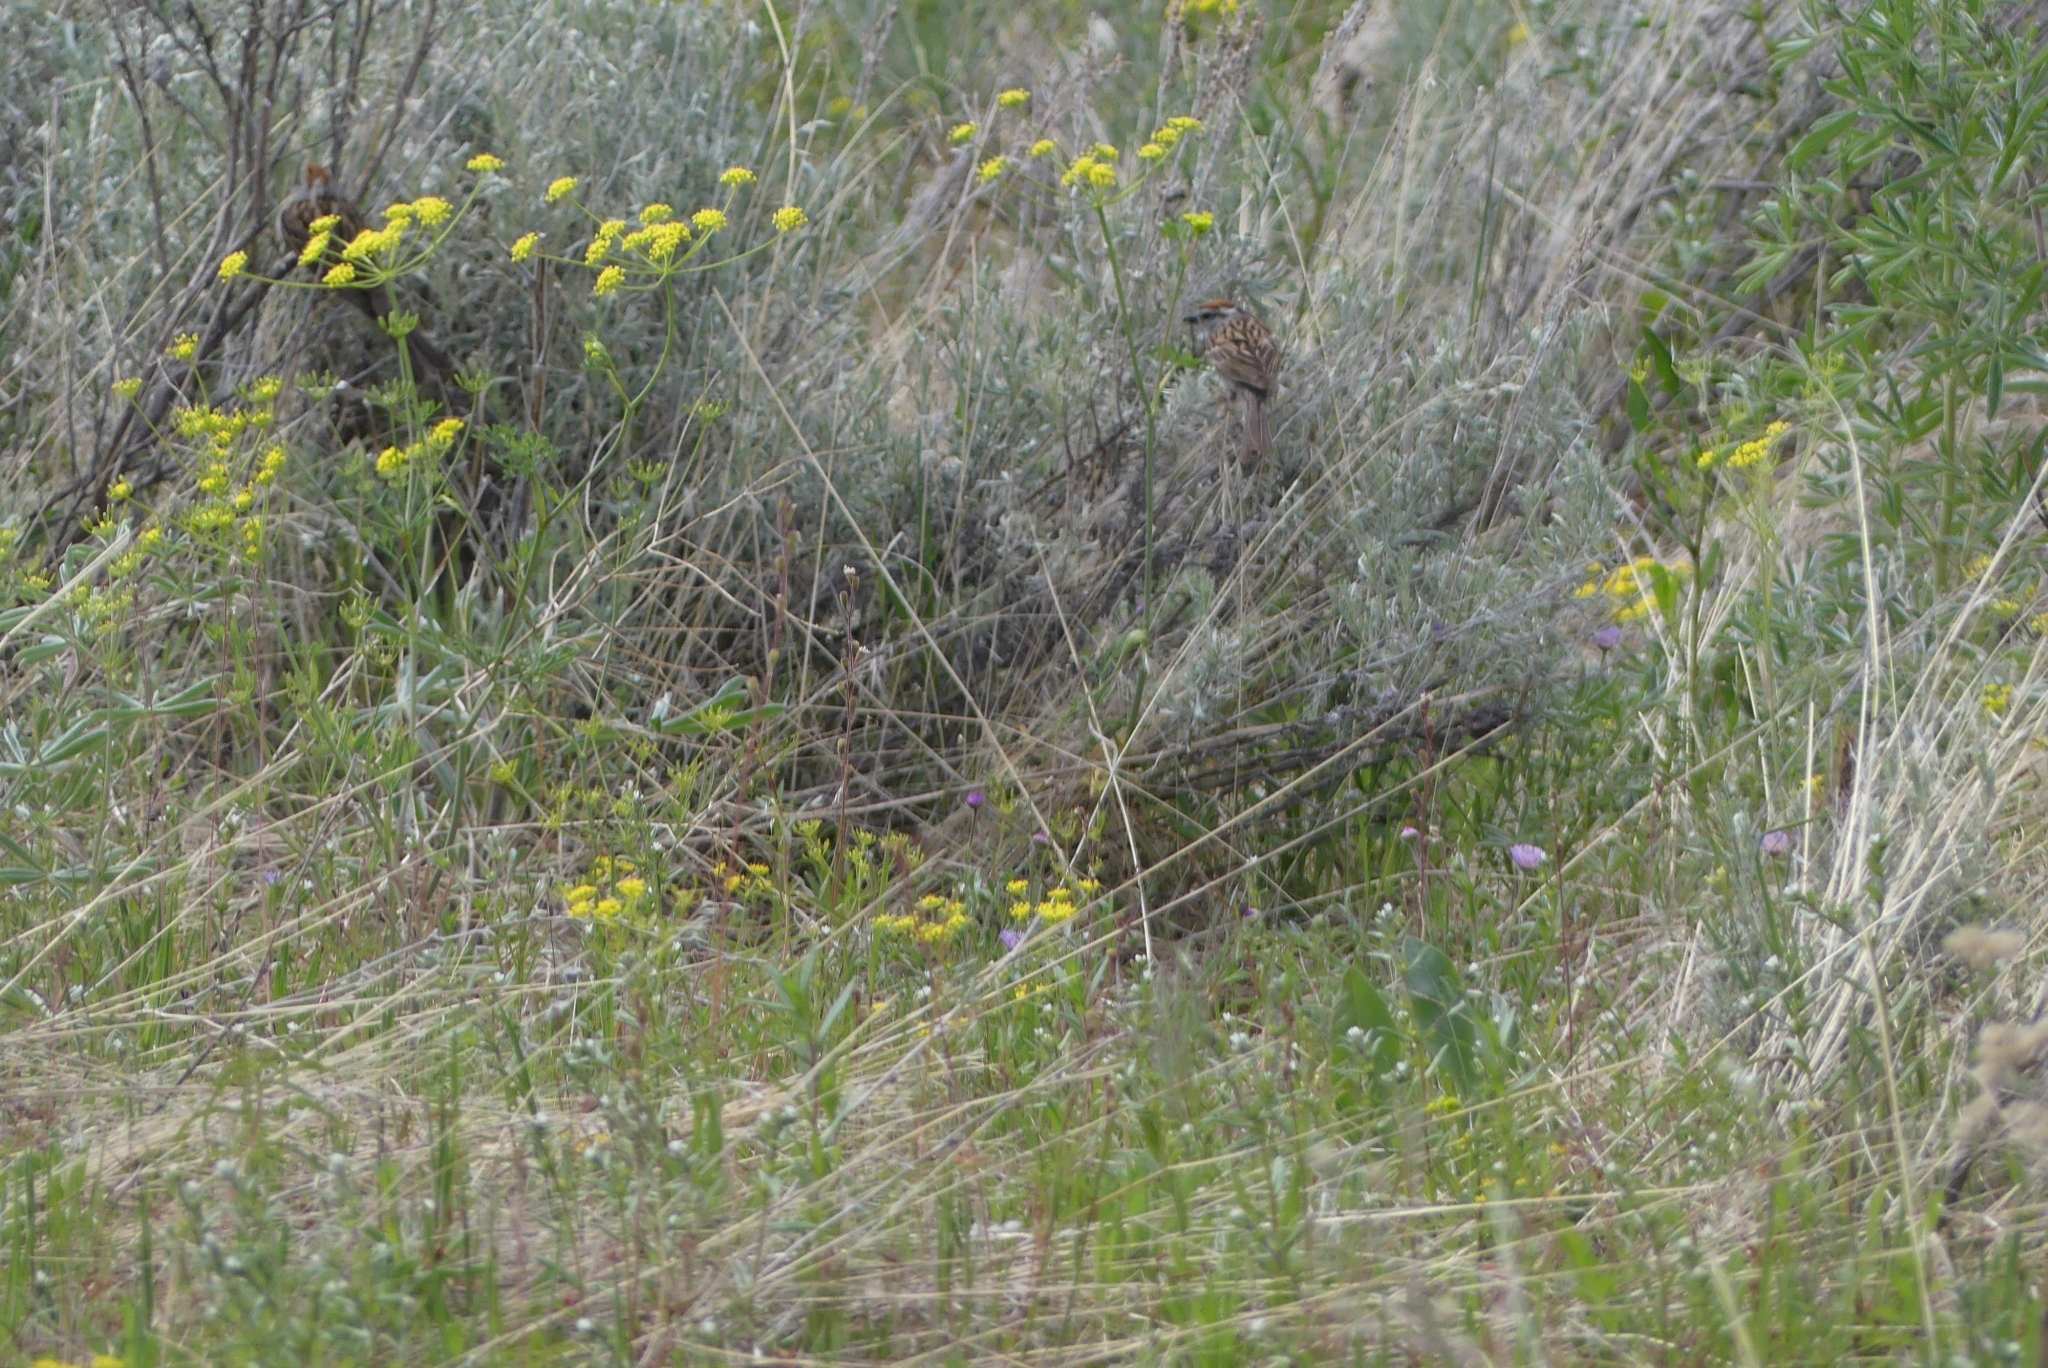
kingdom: Animalia
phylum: Chordata
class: Aves
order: Passeriformes
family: Passerellidae
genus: Spizella
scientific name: Spizella passerina
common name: Chipping sparrow
